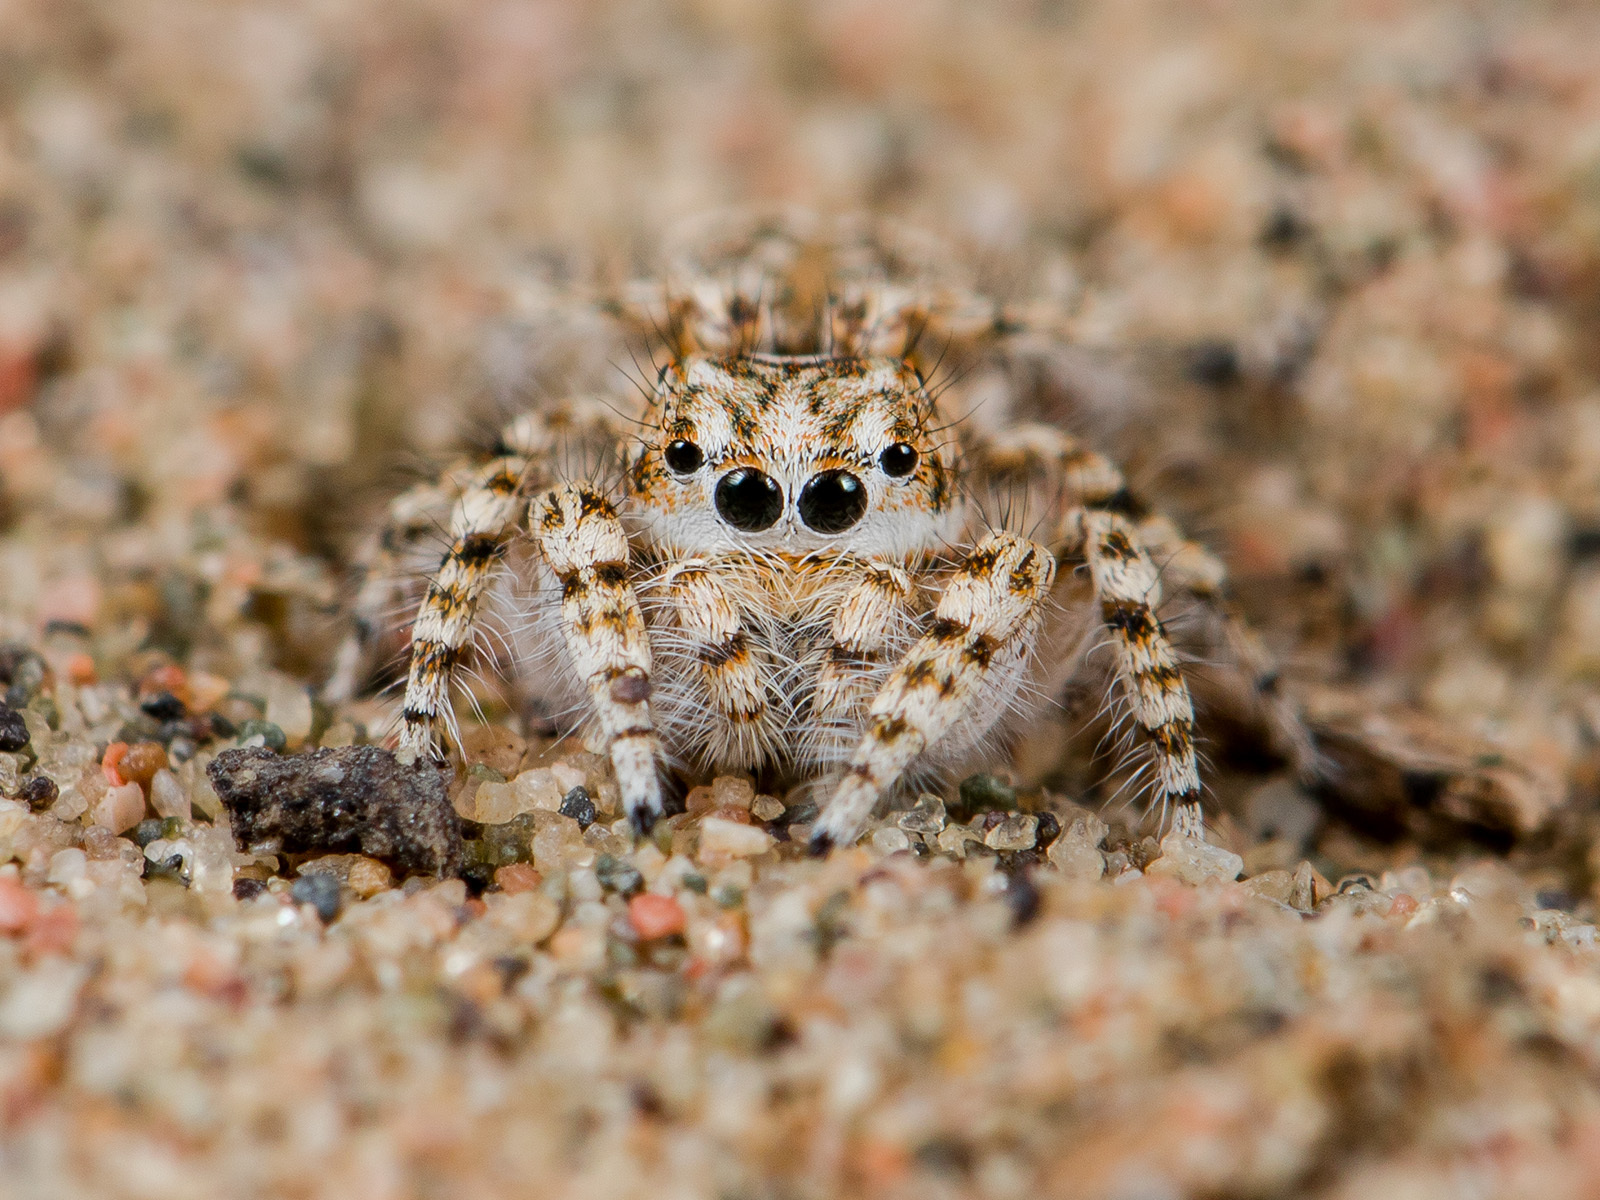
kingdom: Animalia
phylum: Arthropoda
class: Arachnida
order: Araneae
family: Salticidae
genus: Yllenus
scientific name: Yllenus turkestanicus
